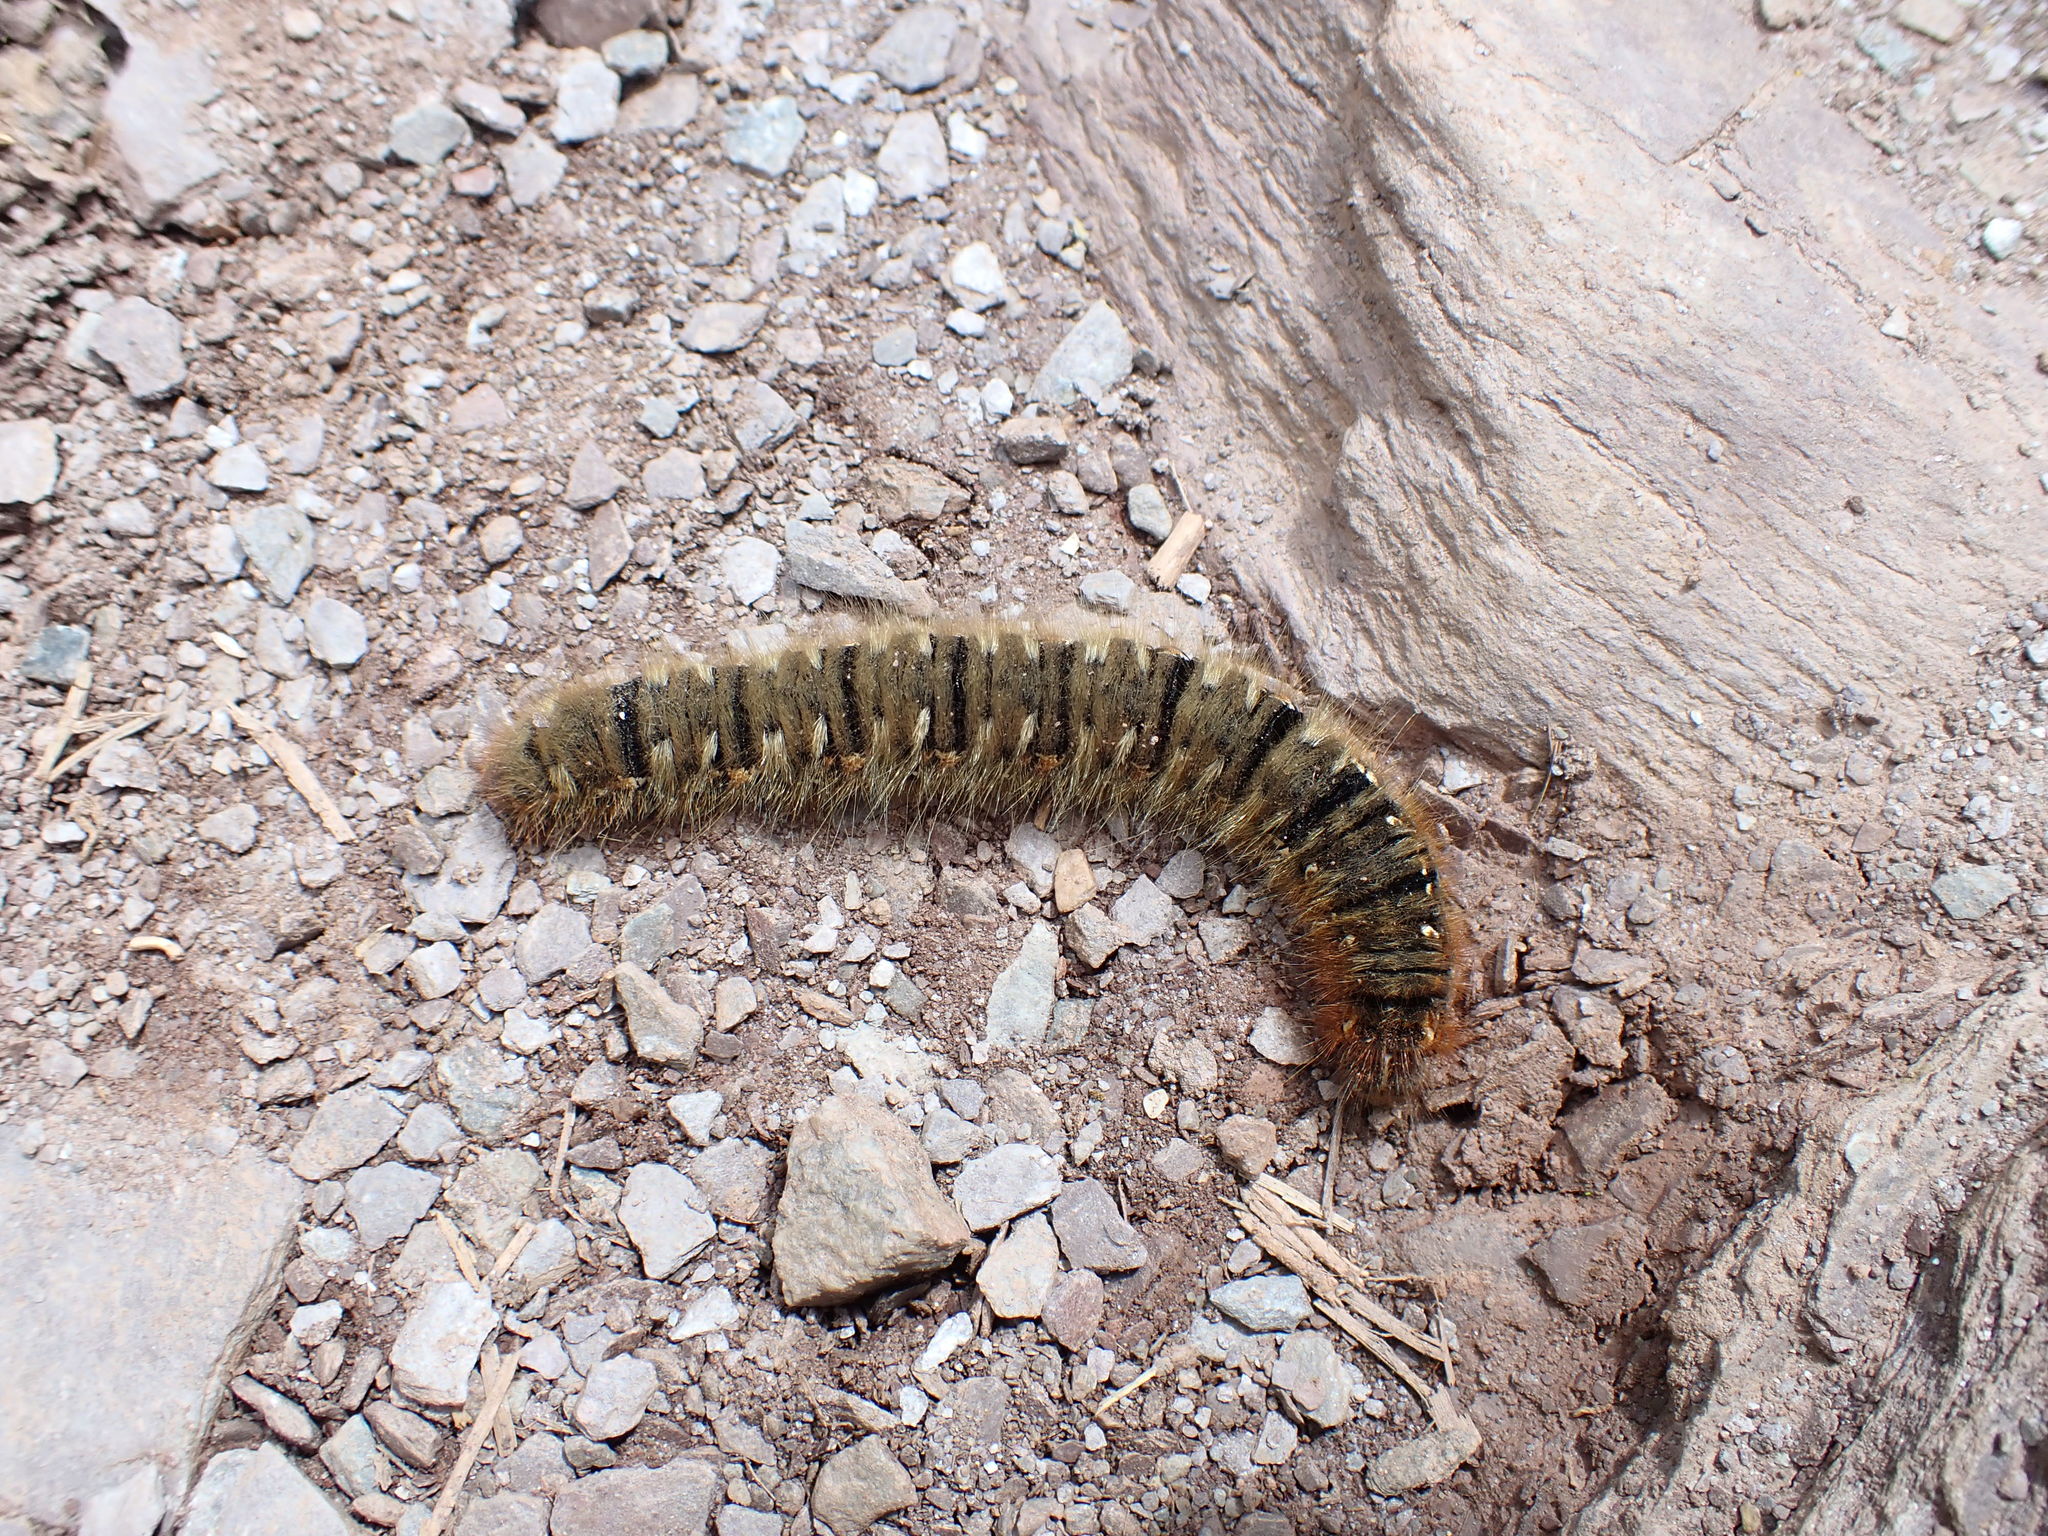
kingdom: Animalia
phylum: Arthropoda
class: Insecta
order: Lepidoptera
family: Lasiocampidae
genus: Lasiocampa
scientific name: Lasiocampa quercus
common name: Oak eggar
